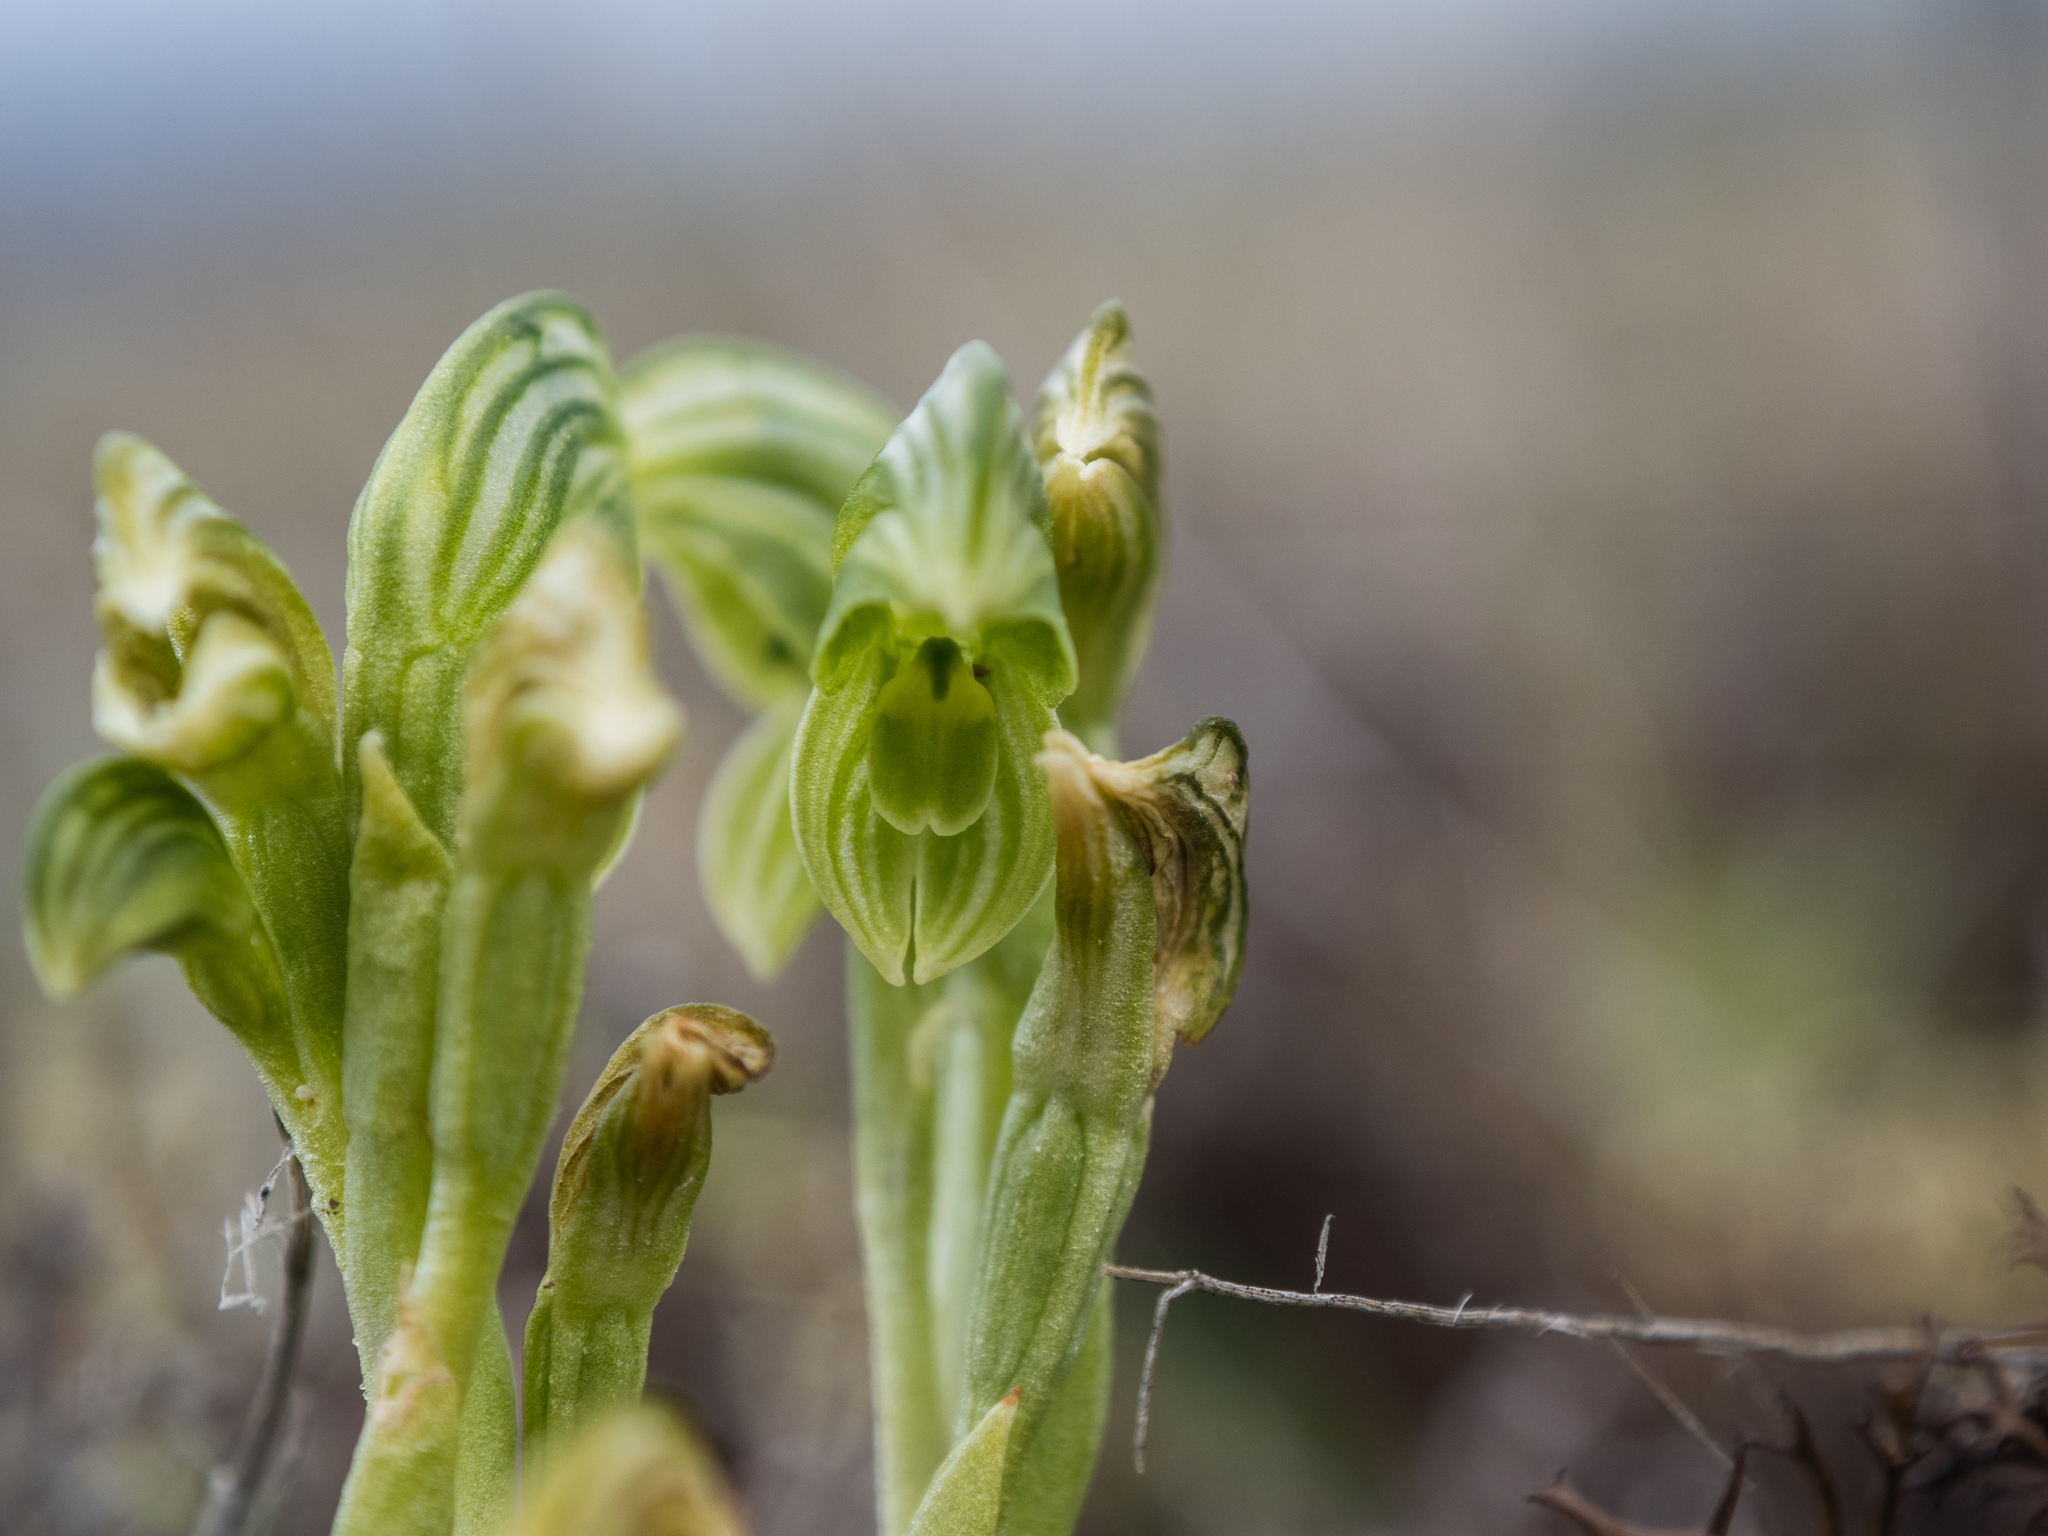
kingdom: Plantae
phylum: Tracheophyta
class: Liliopsida
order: Asparagales
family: Orchidaceae
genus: Pterostylis
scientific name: Pterostylis tanypoda
